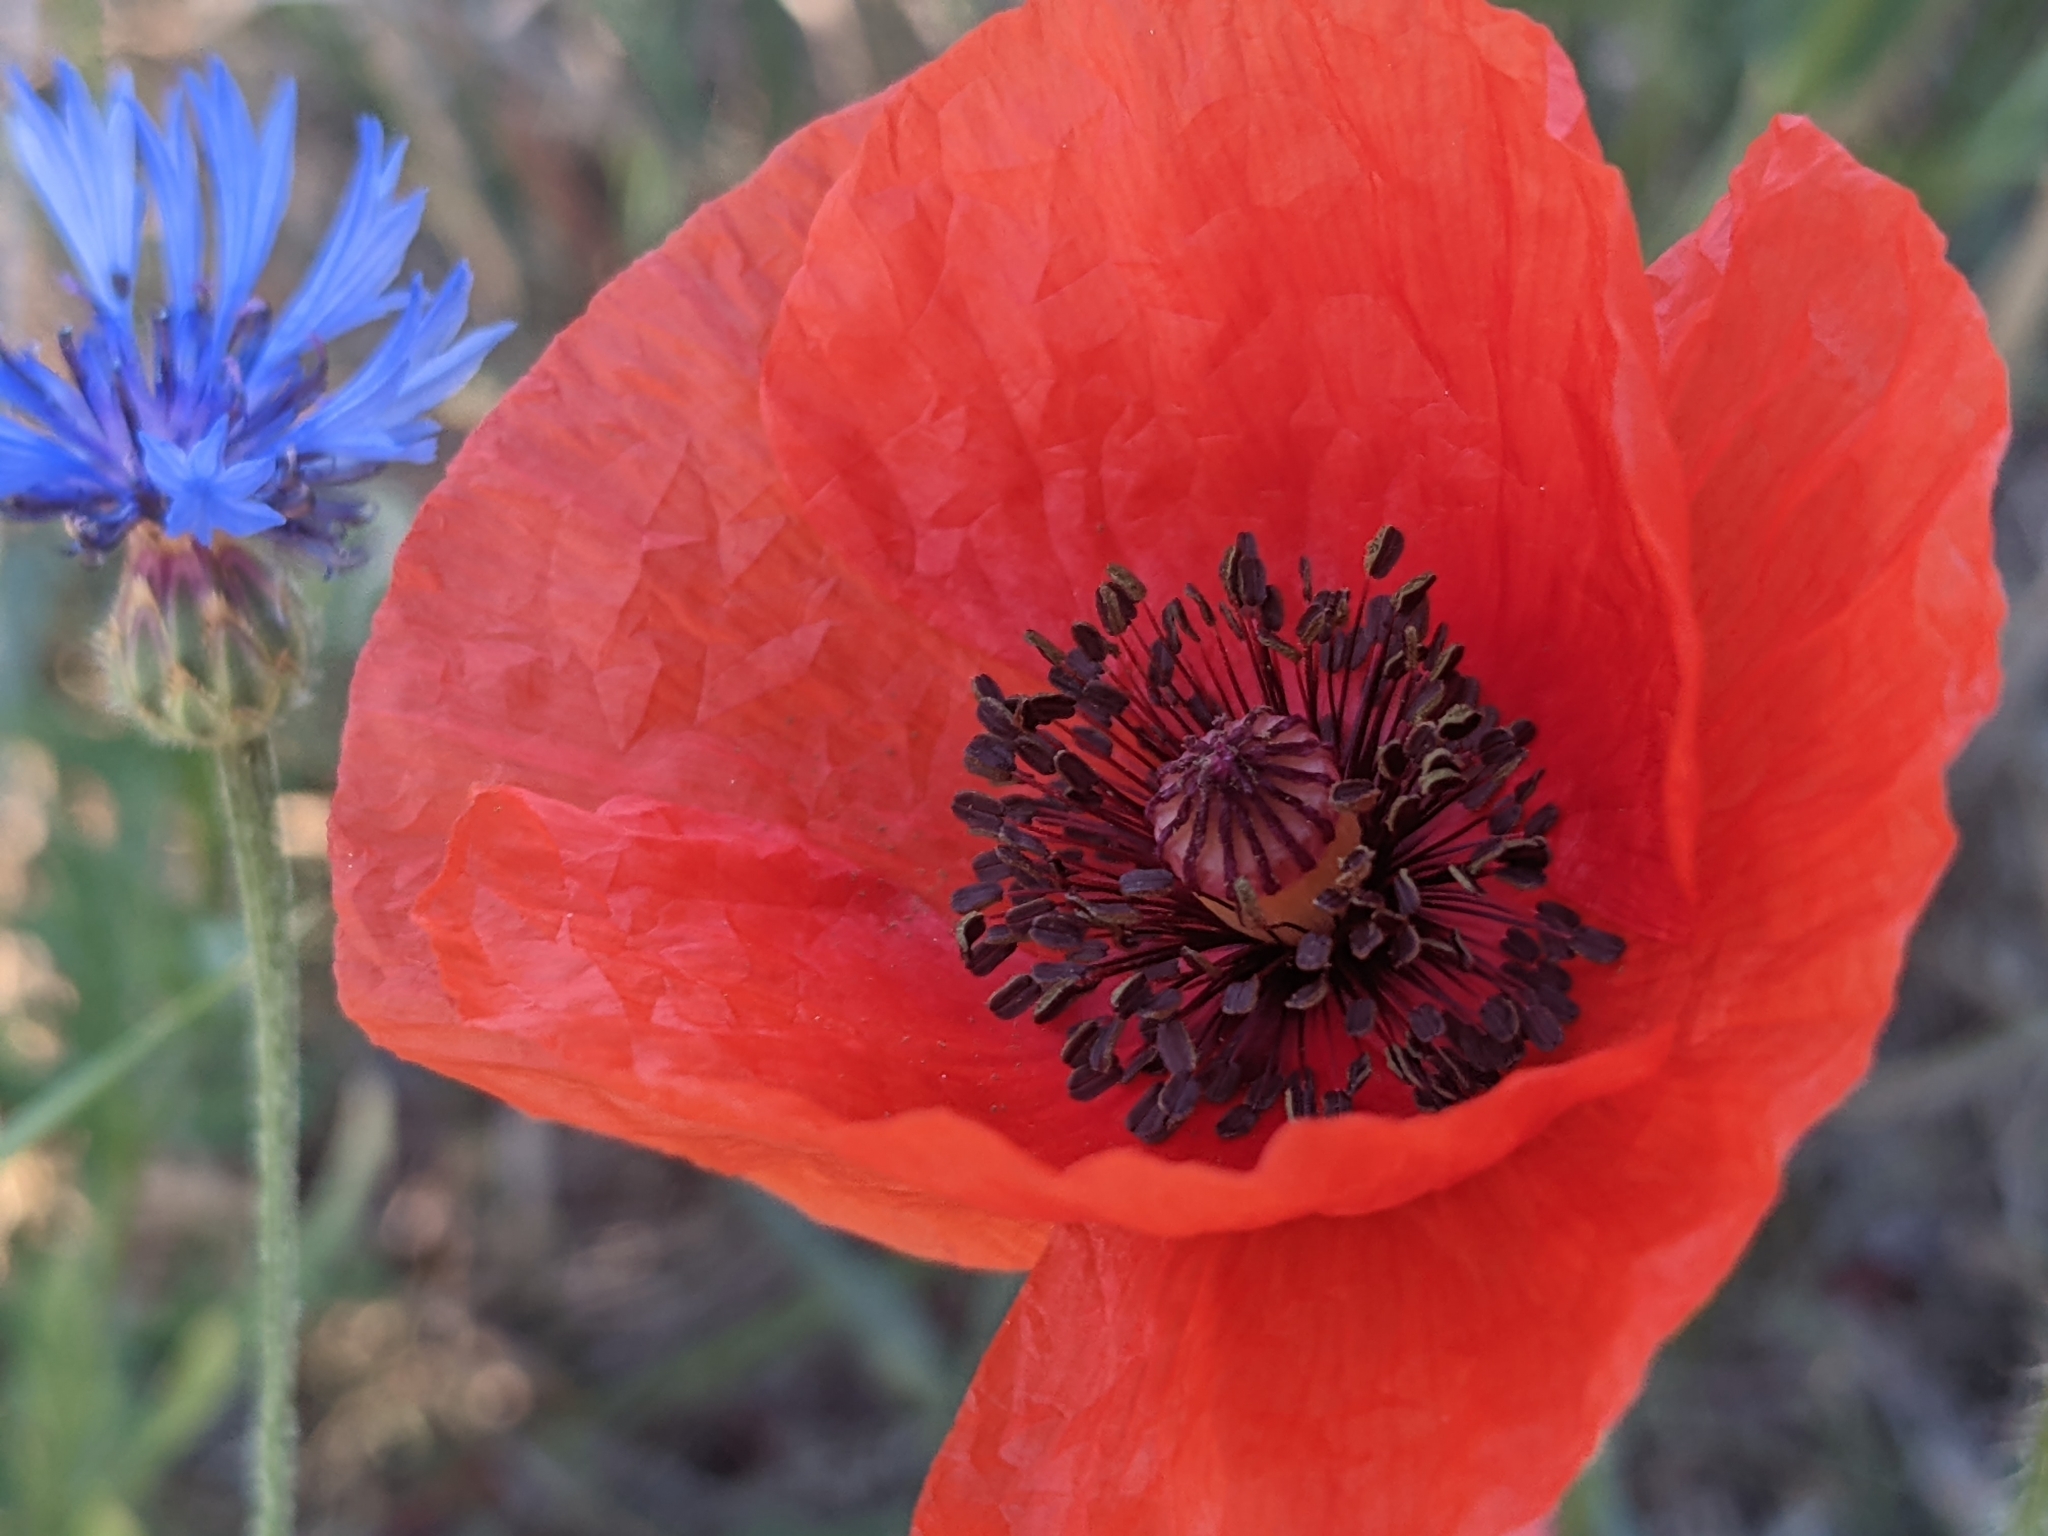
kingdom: Plantae
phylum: Tracheophyta
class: Magnoliopsida
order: Ranunculales
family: Papaveraceae
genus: Papaver
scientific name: Papaver rhoeas
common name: Corn poppy
